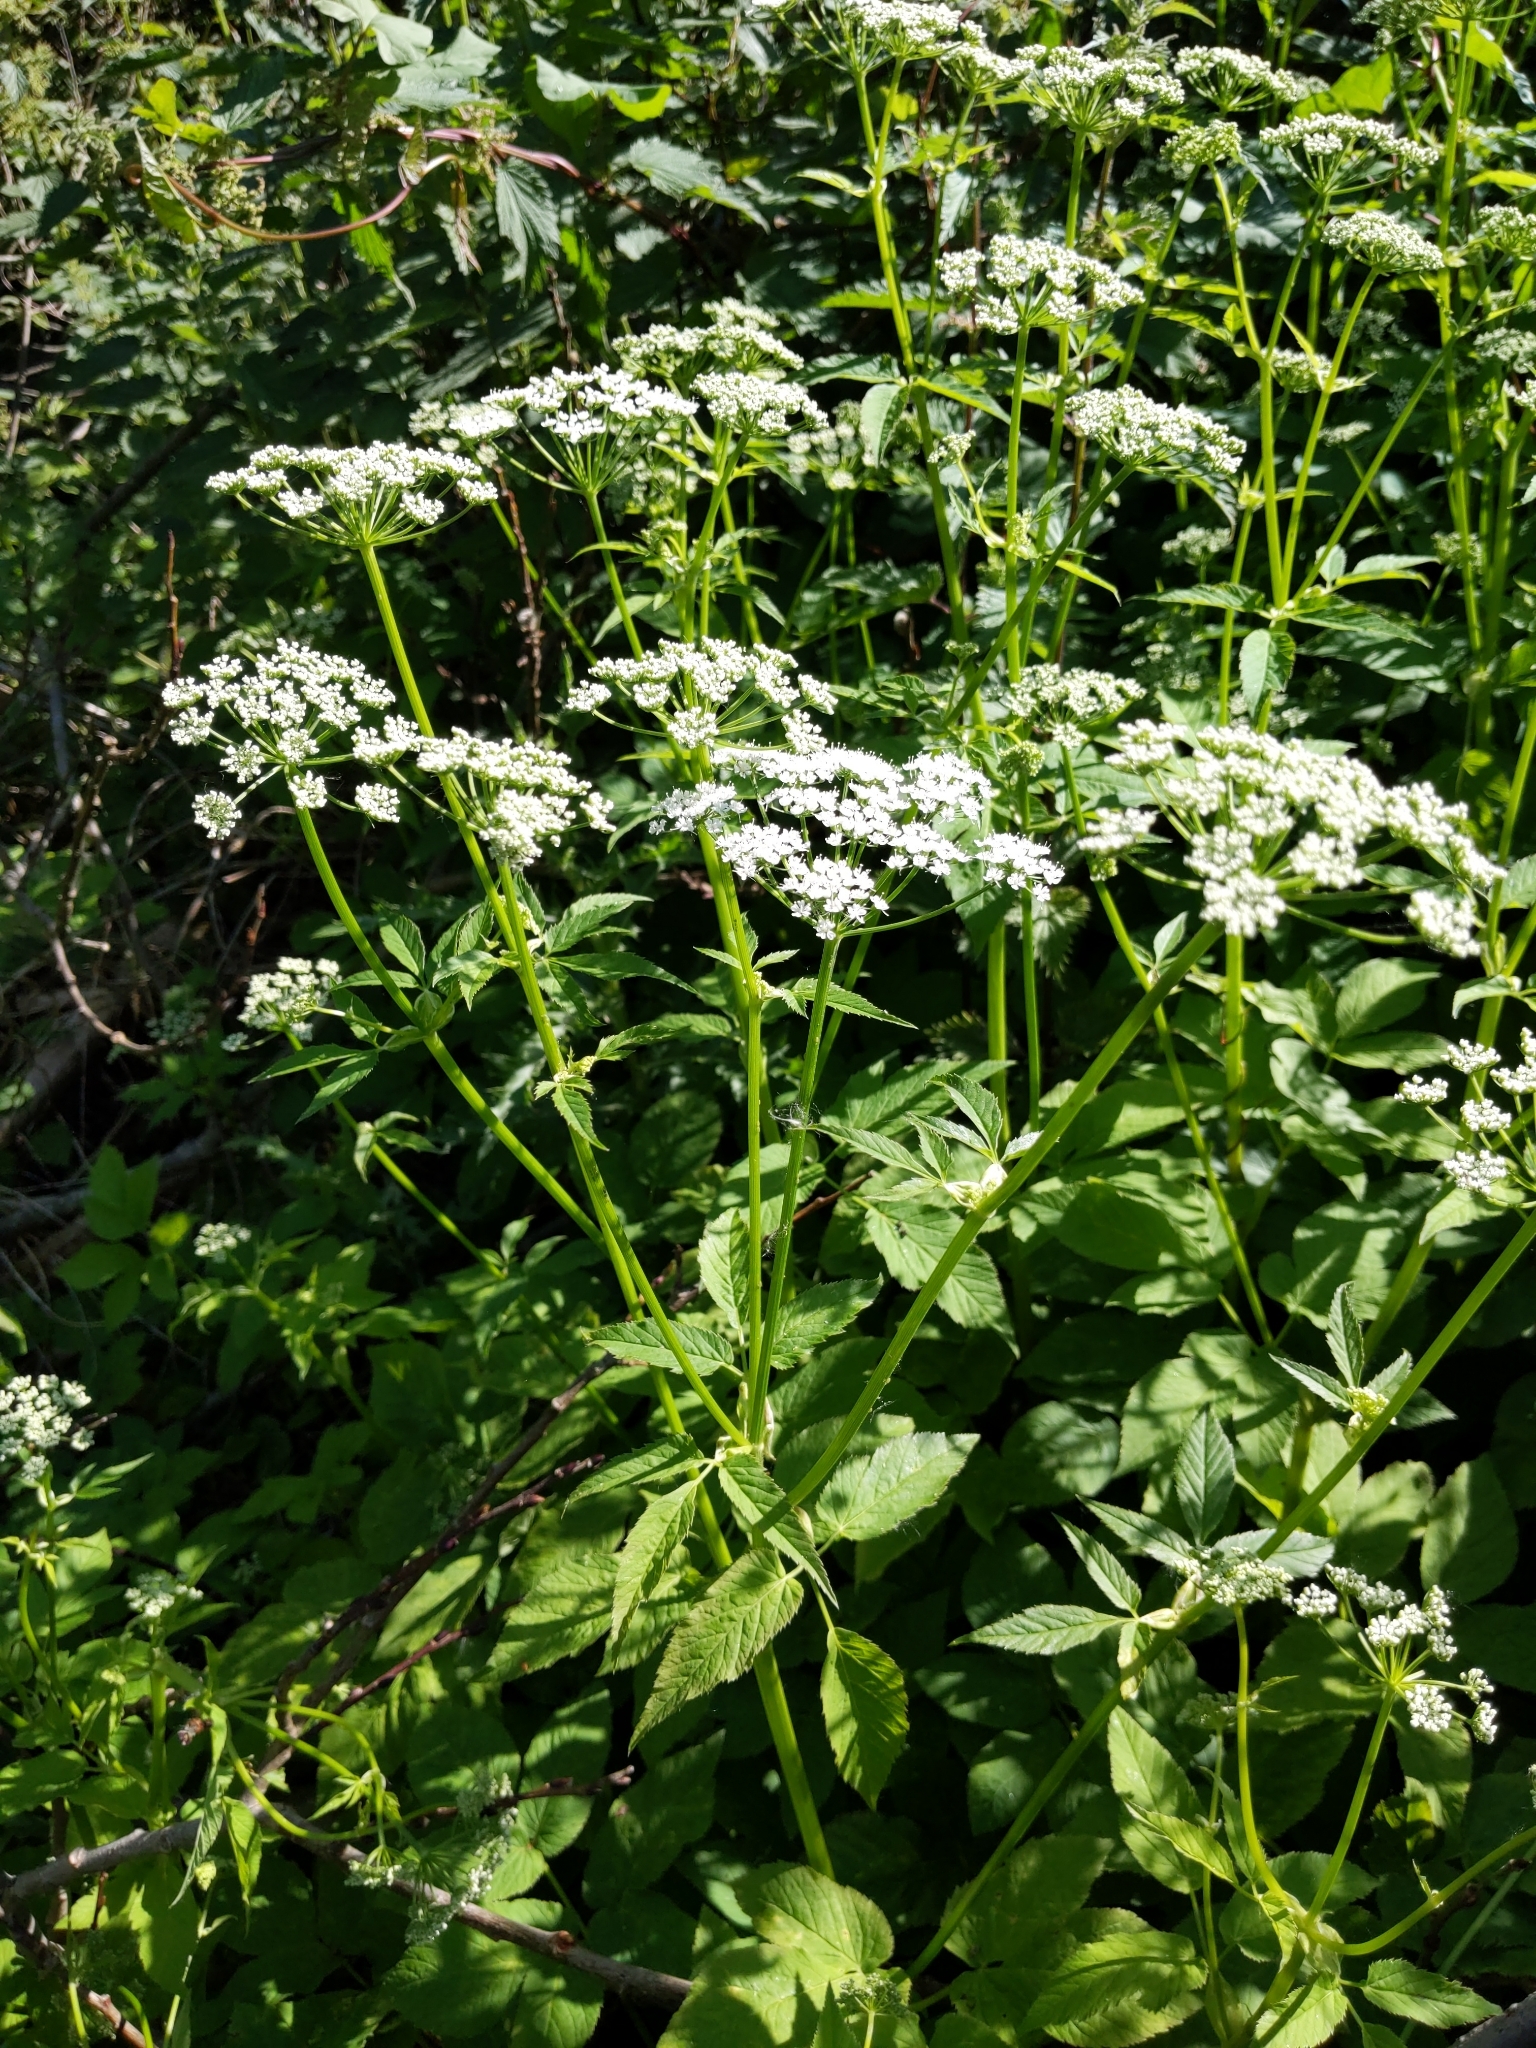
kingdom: Plantae
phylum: Tracheophyta
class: Magnoliopsida
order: Apiales
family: Apiaceae
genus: Aegopodium
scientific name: Aegopodium podagraria
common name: Ground-elder
